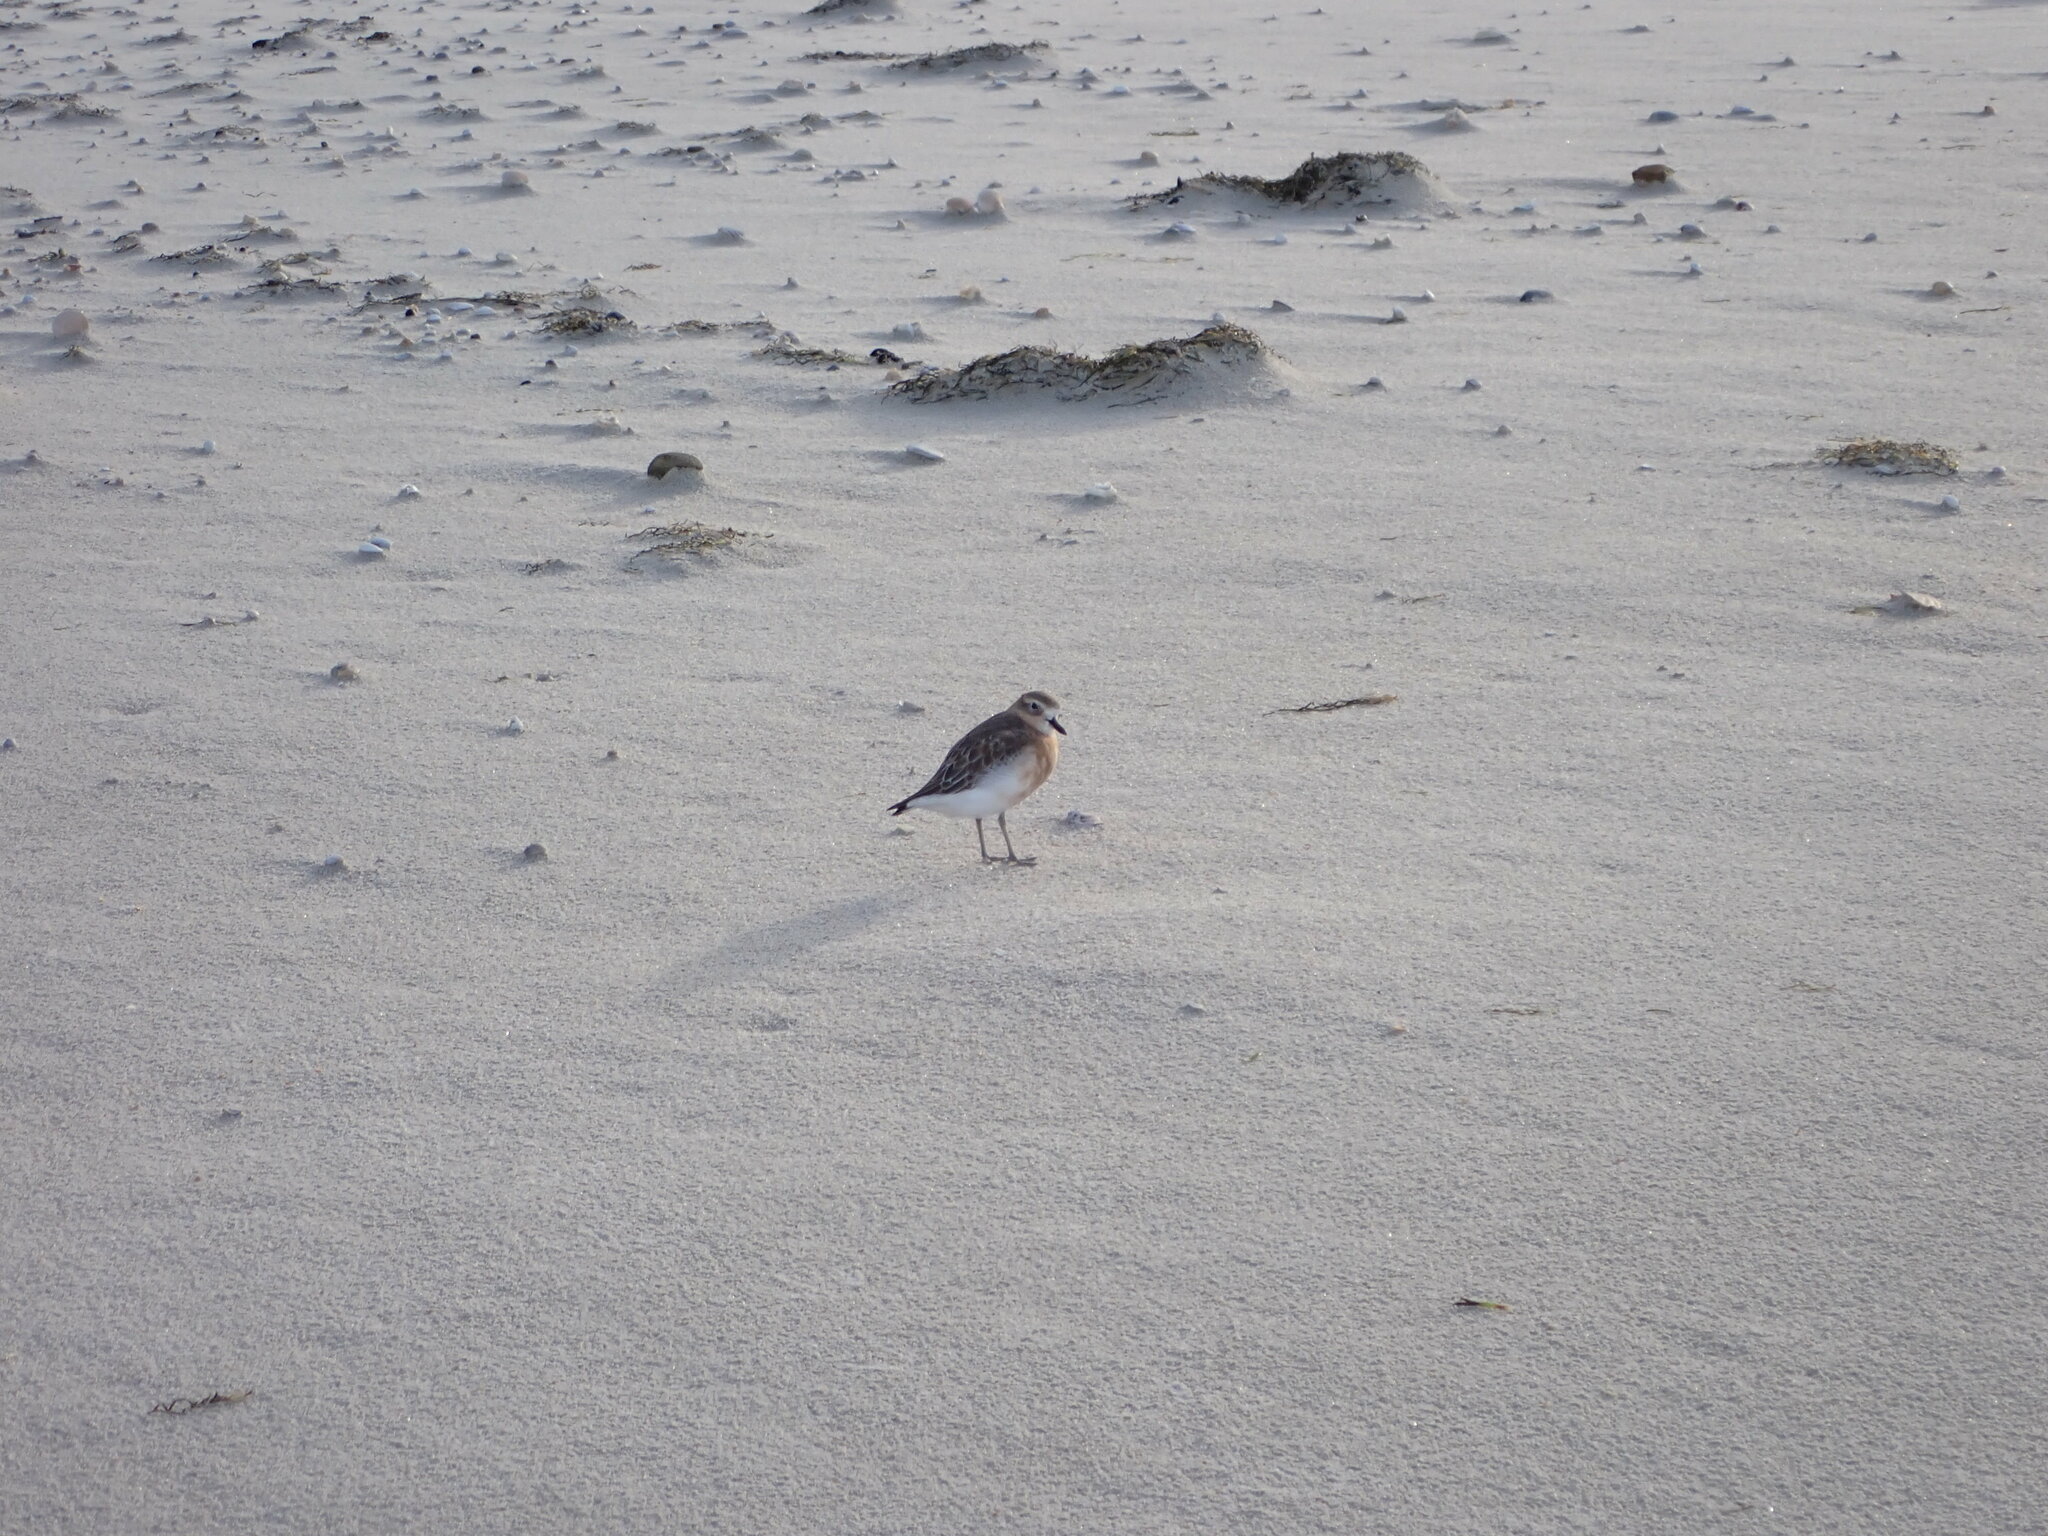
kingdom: Animalia
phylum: Chordata
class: Aves
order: Charadriiformes
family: Charadriidae
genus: Anarhynchus
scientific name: Anarhynchus
